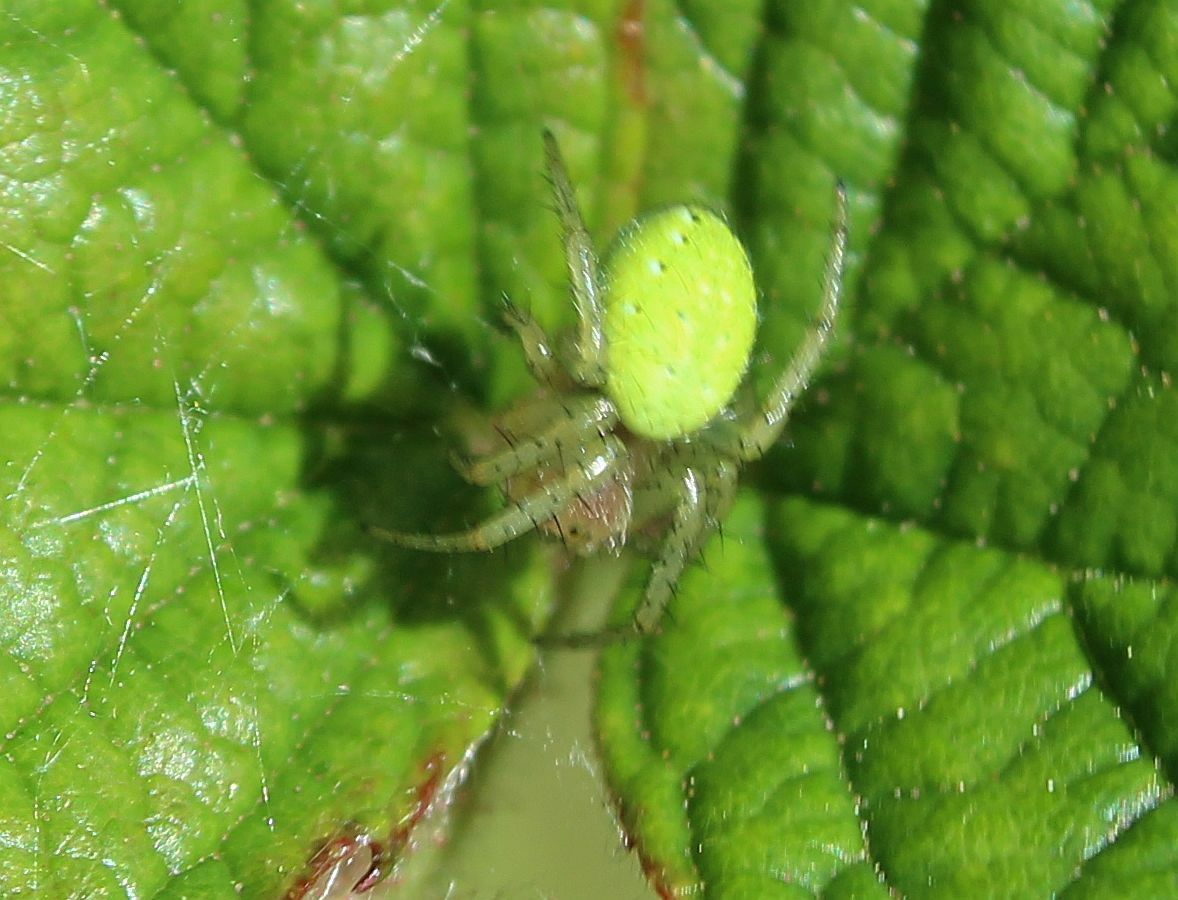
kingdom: Animalia
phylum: Arthropoda
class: Arachnida
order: Araneae
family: Araneidae
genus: Araniella
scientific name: Araniella
